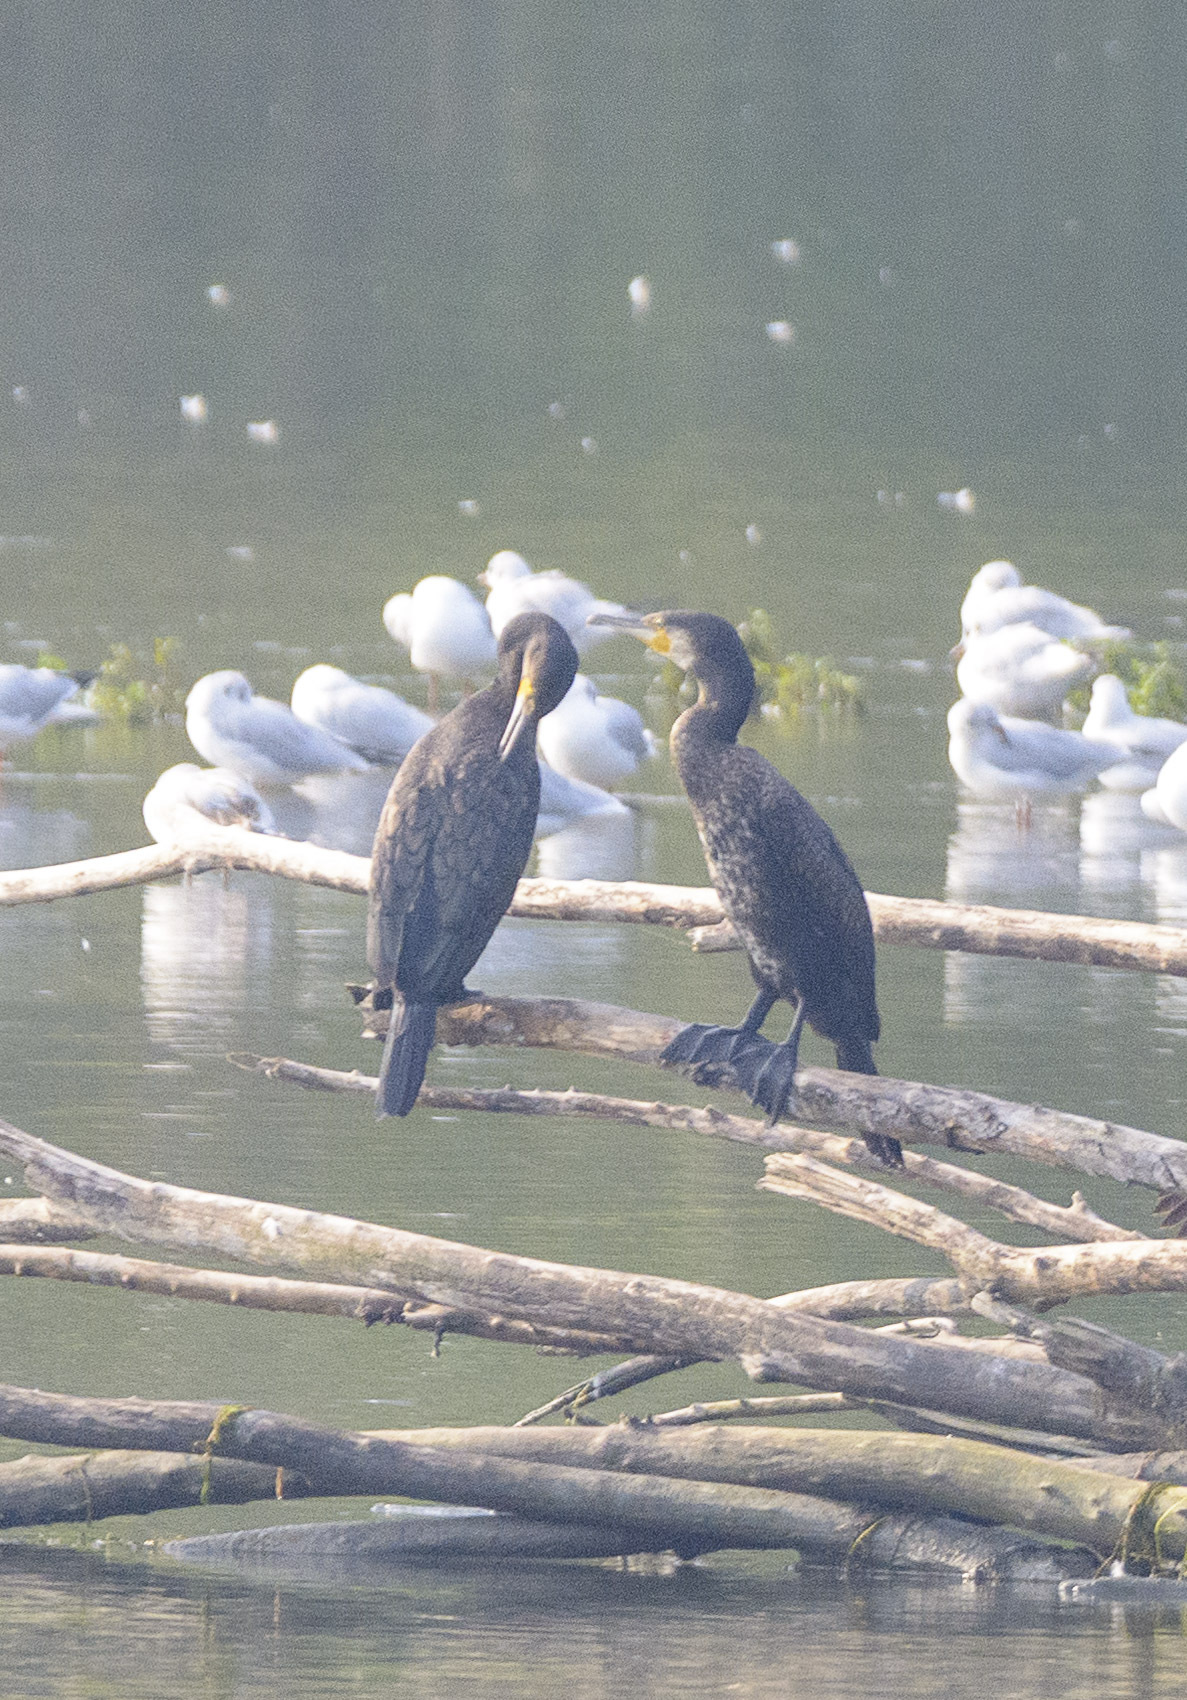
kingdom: Animalia
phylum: Chordata
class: Aves
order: Suliformes
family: Phalacrocoracidae
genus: Phalacrocorax
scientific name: Phalacrocorax carbo
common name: Great cormorant
